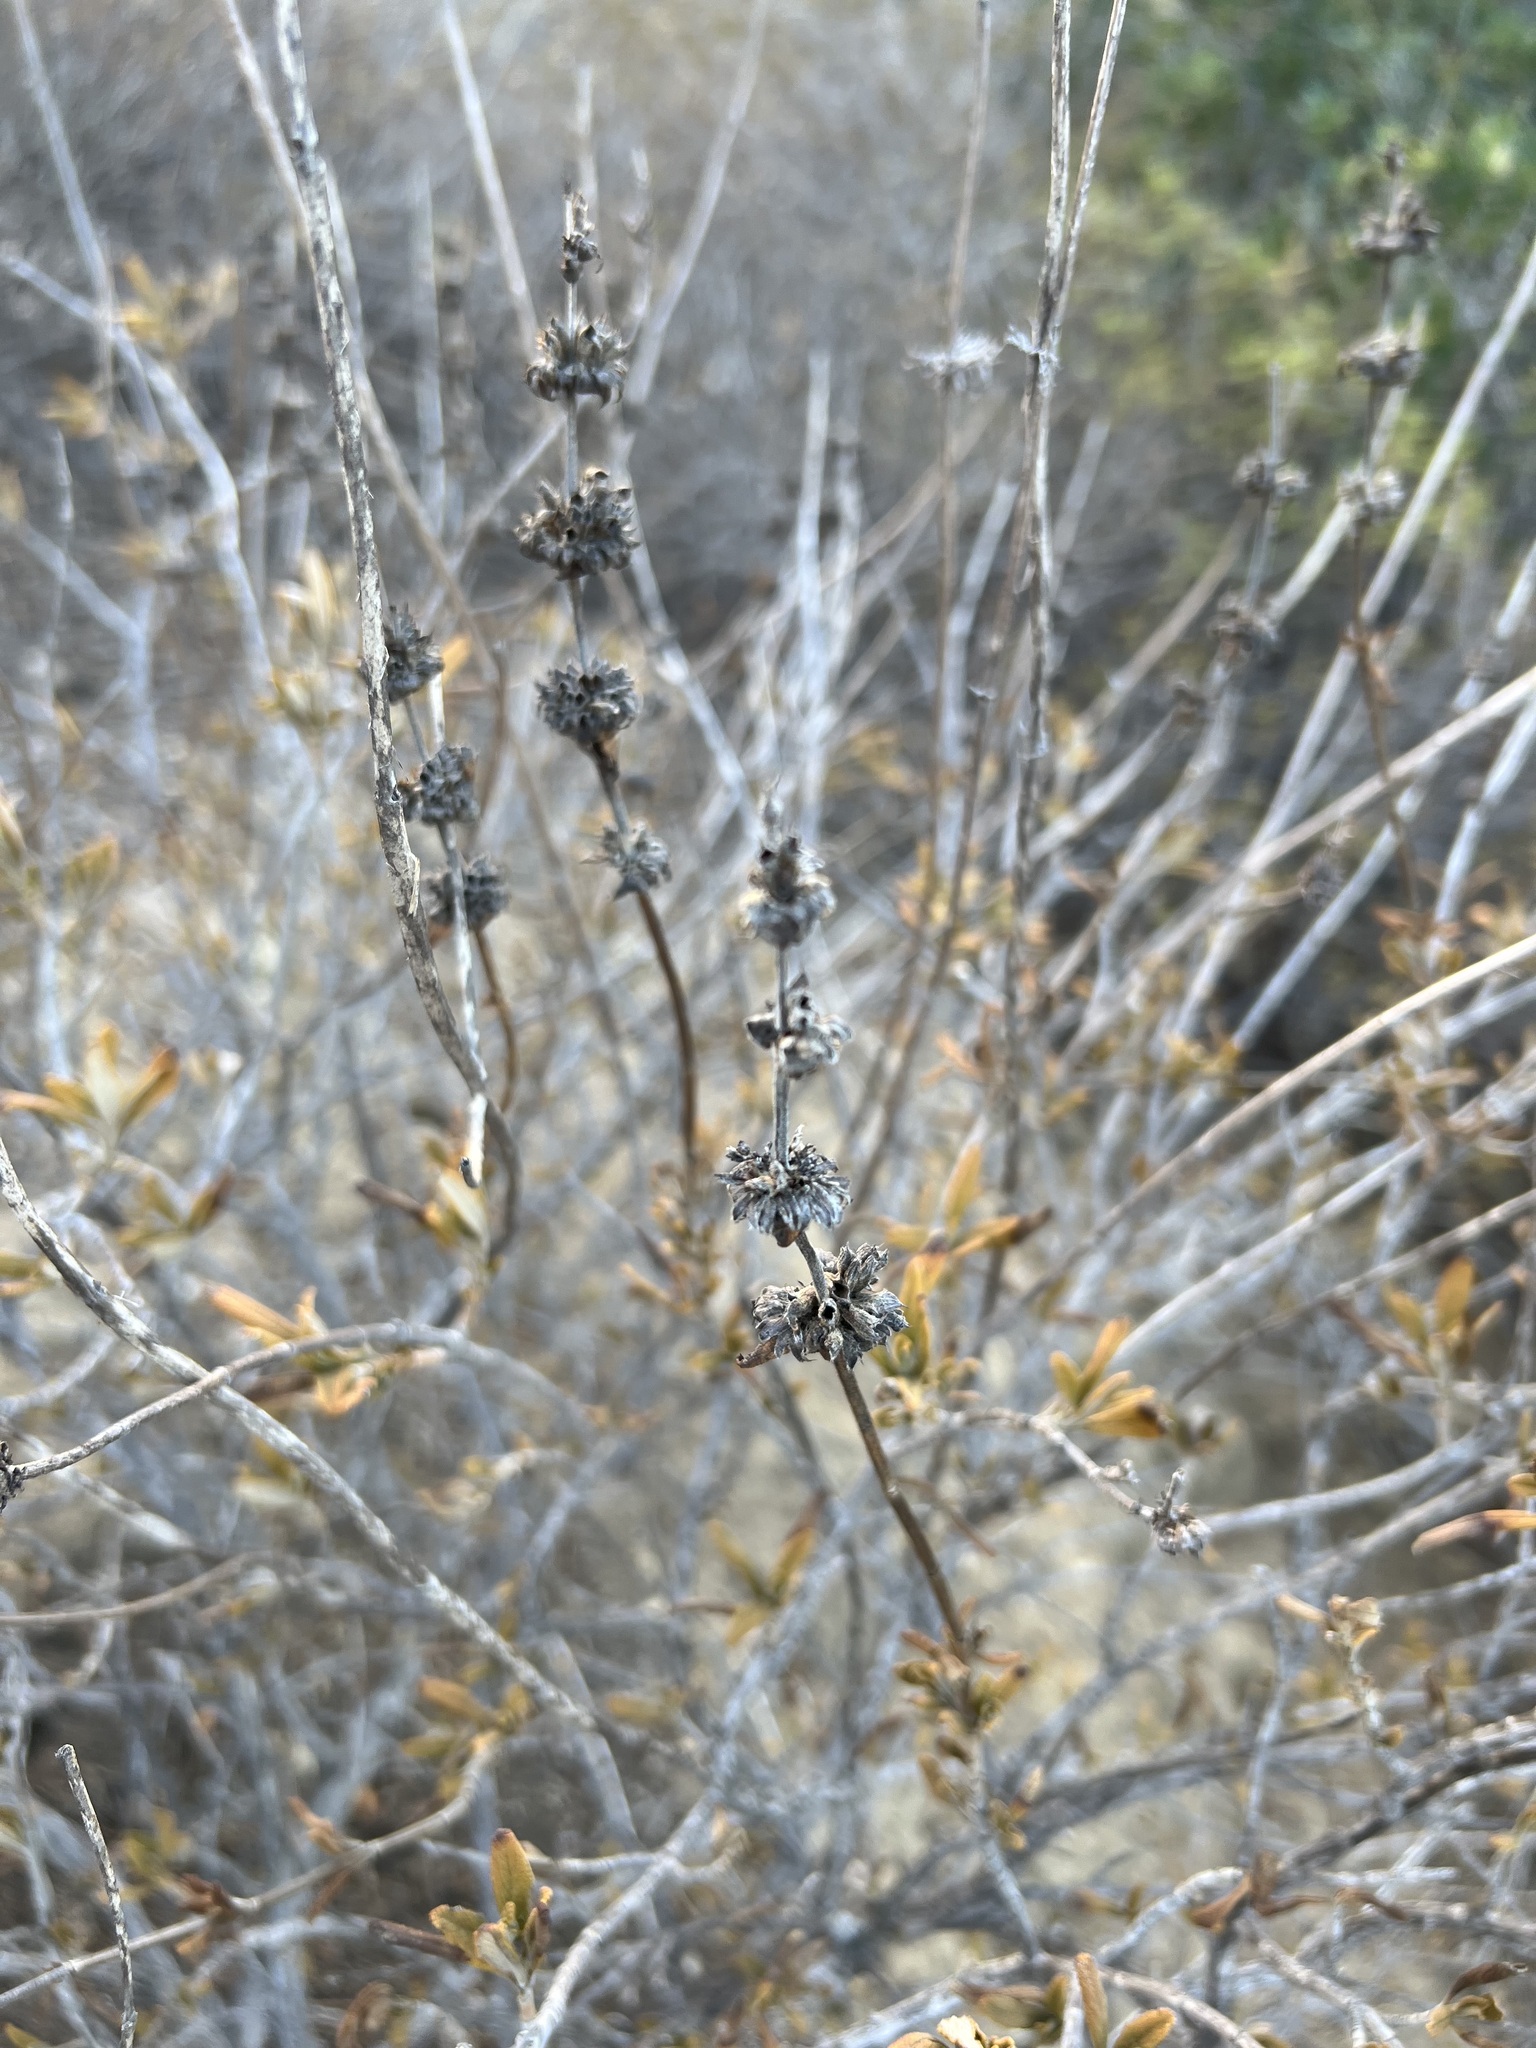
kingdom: Plantae
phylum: Tracheophyta
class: Magnoliopsida
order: Lamiales
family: Lamiaceae
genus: Salvia
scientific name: Salvia mellifera
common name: Black sage
